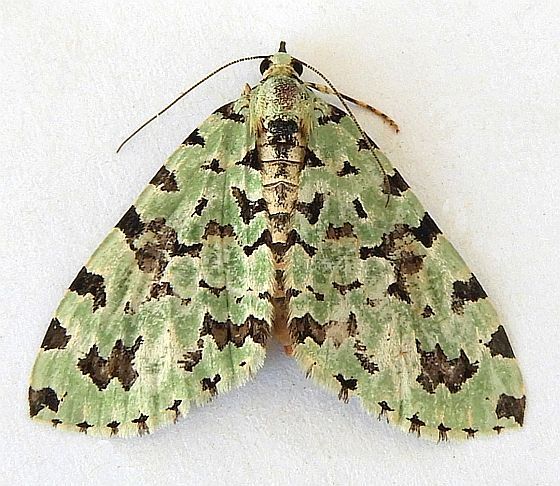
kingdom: Animalia
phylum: Arthropoda
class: Insecta
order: Lepidoptera
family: Geometridae
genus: Hydriomena
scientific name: Hydriomena costipunctata
